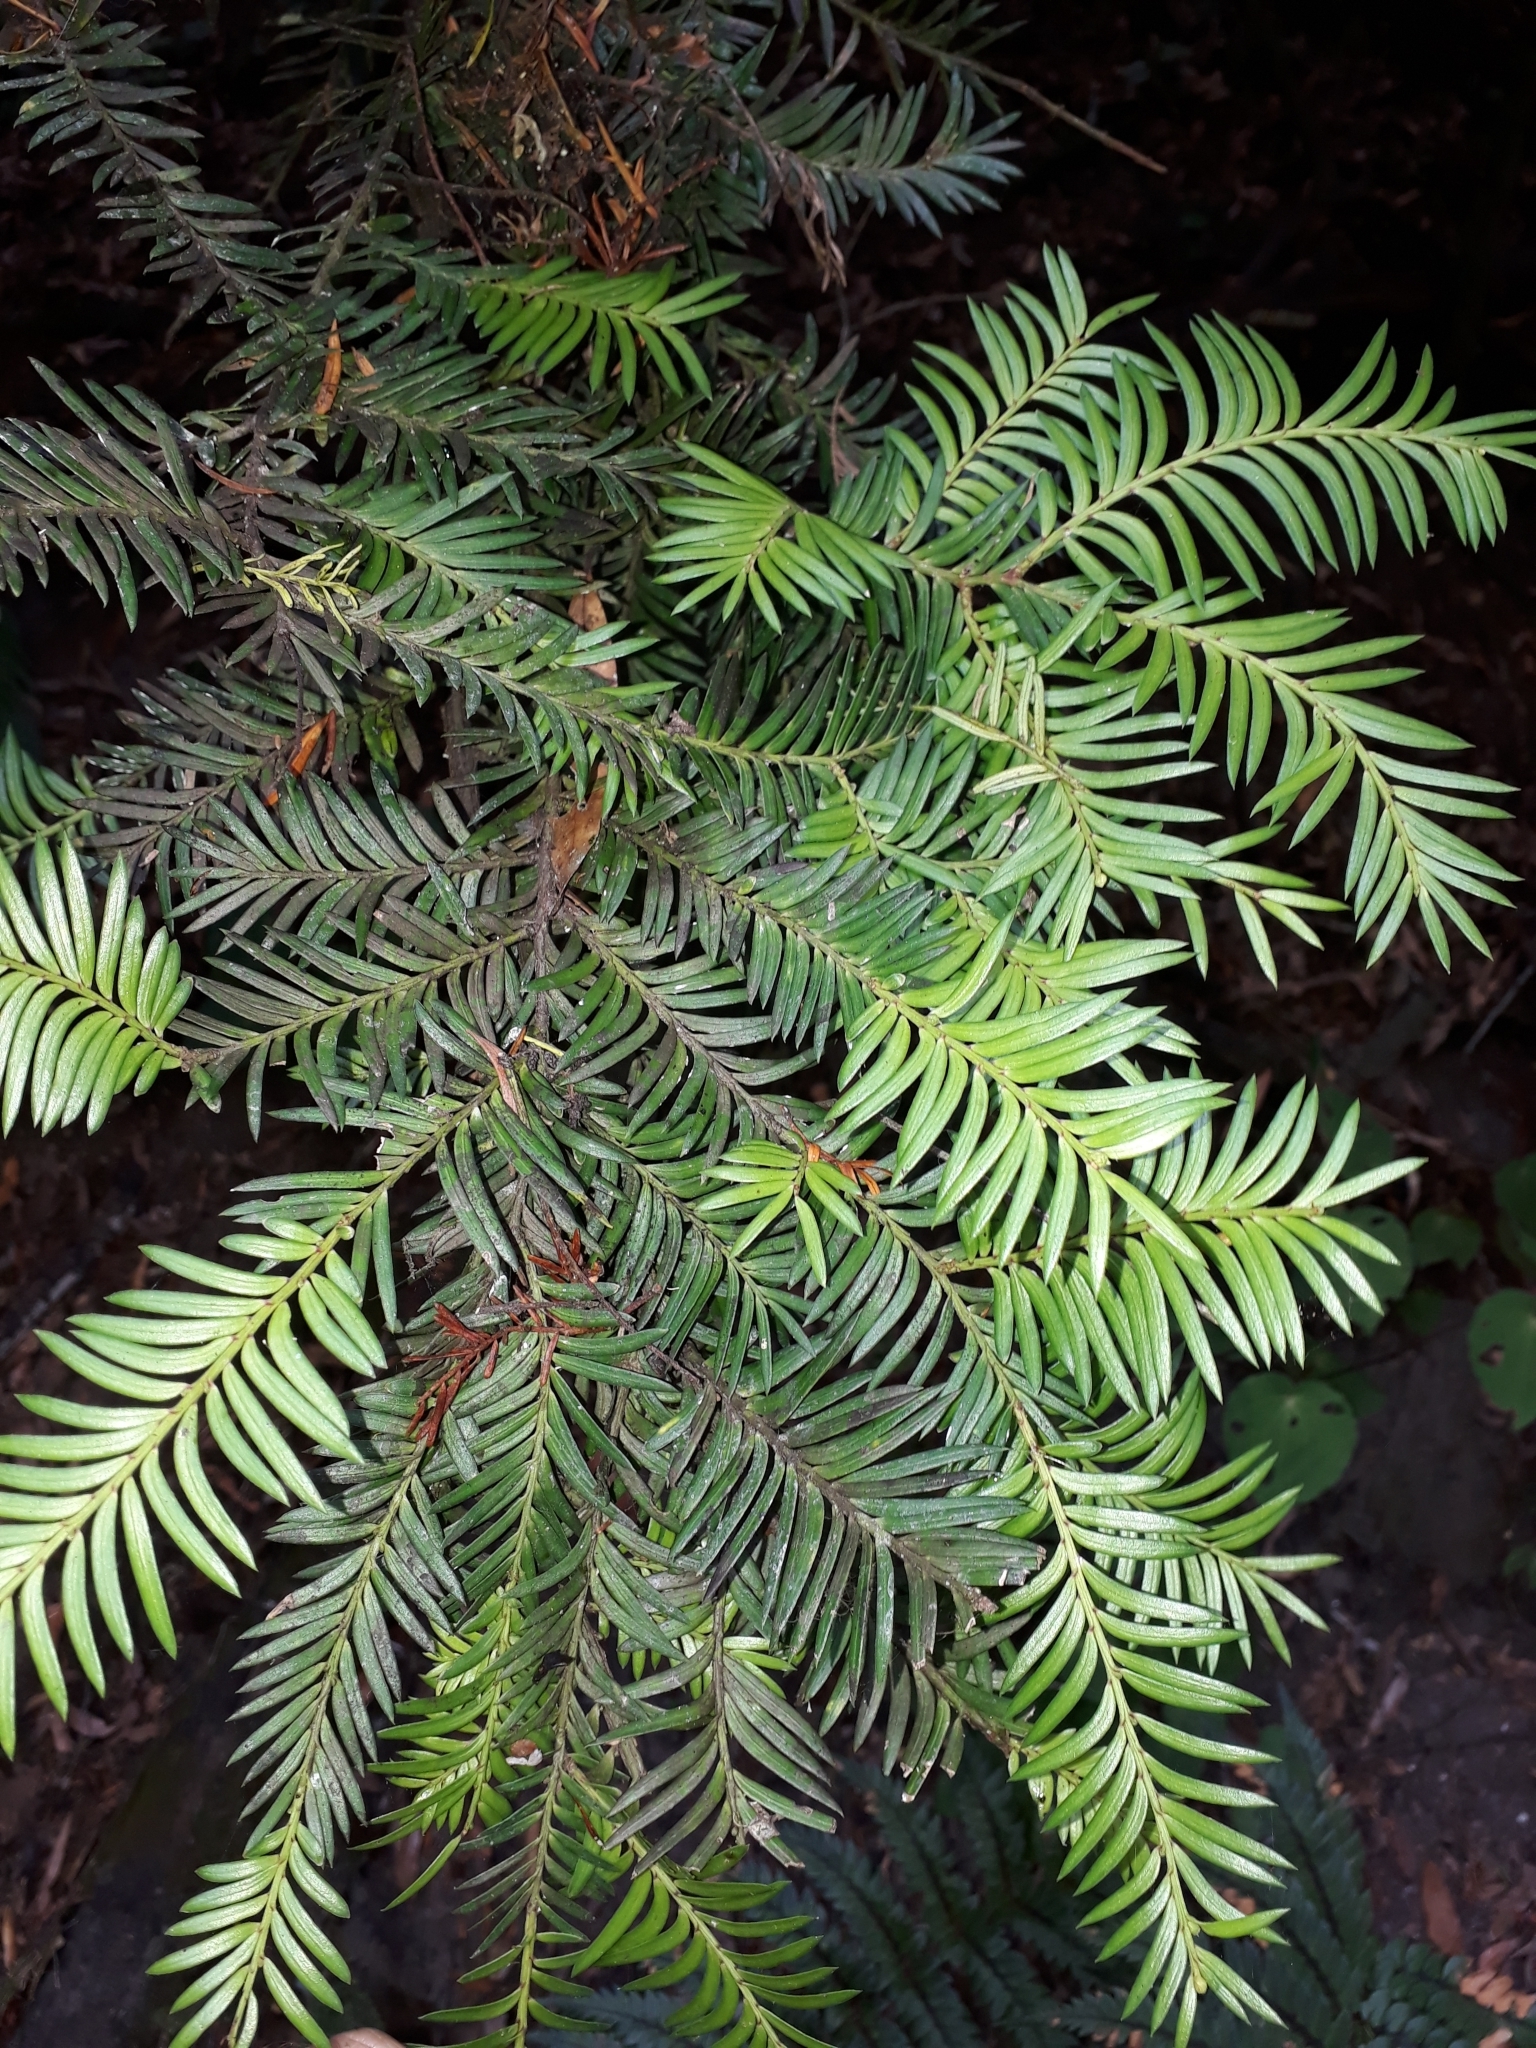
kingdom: Plantae
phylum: Tracheophyta
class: Pinopsida
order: Pinales
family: Podocarpaceae
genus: Prumnopitys
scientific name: Prumnopitys ferruginea
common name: Brown pine
